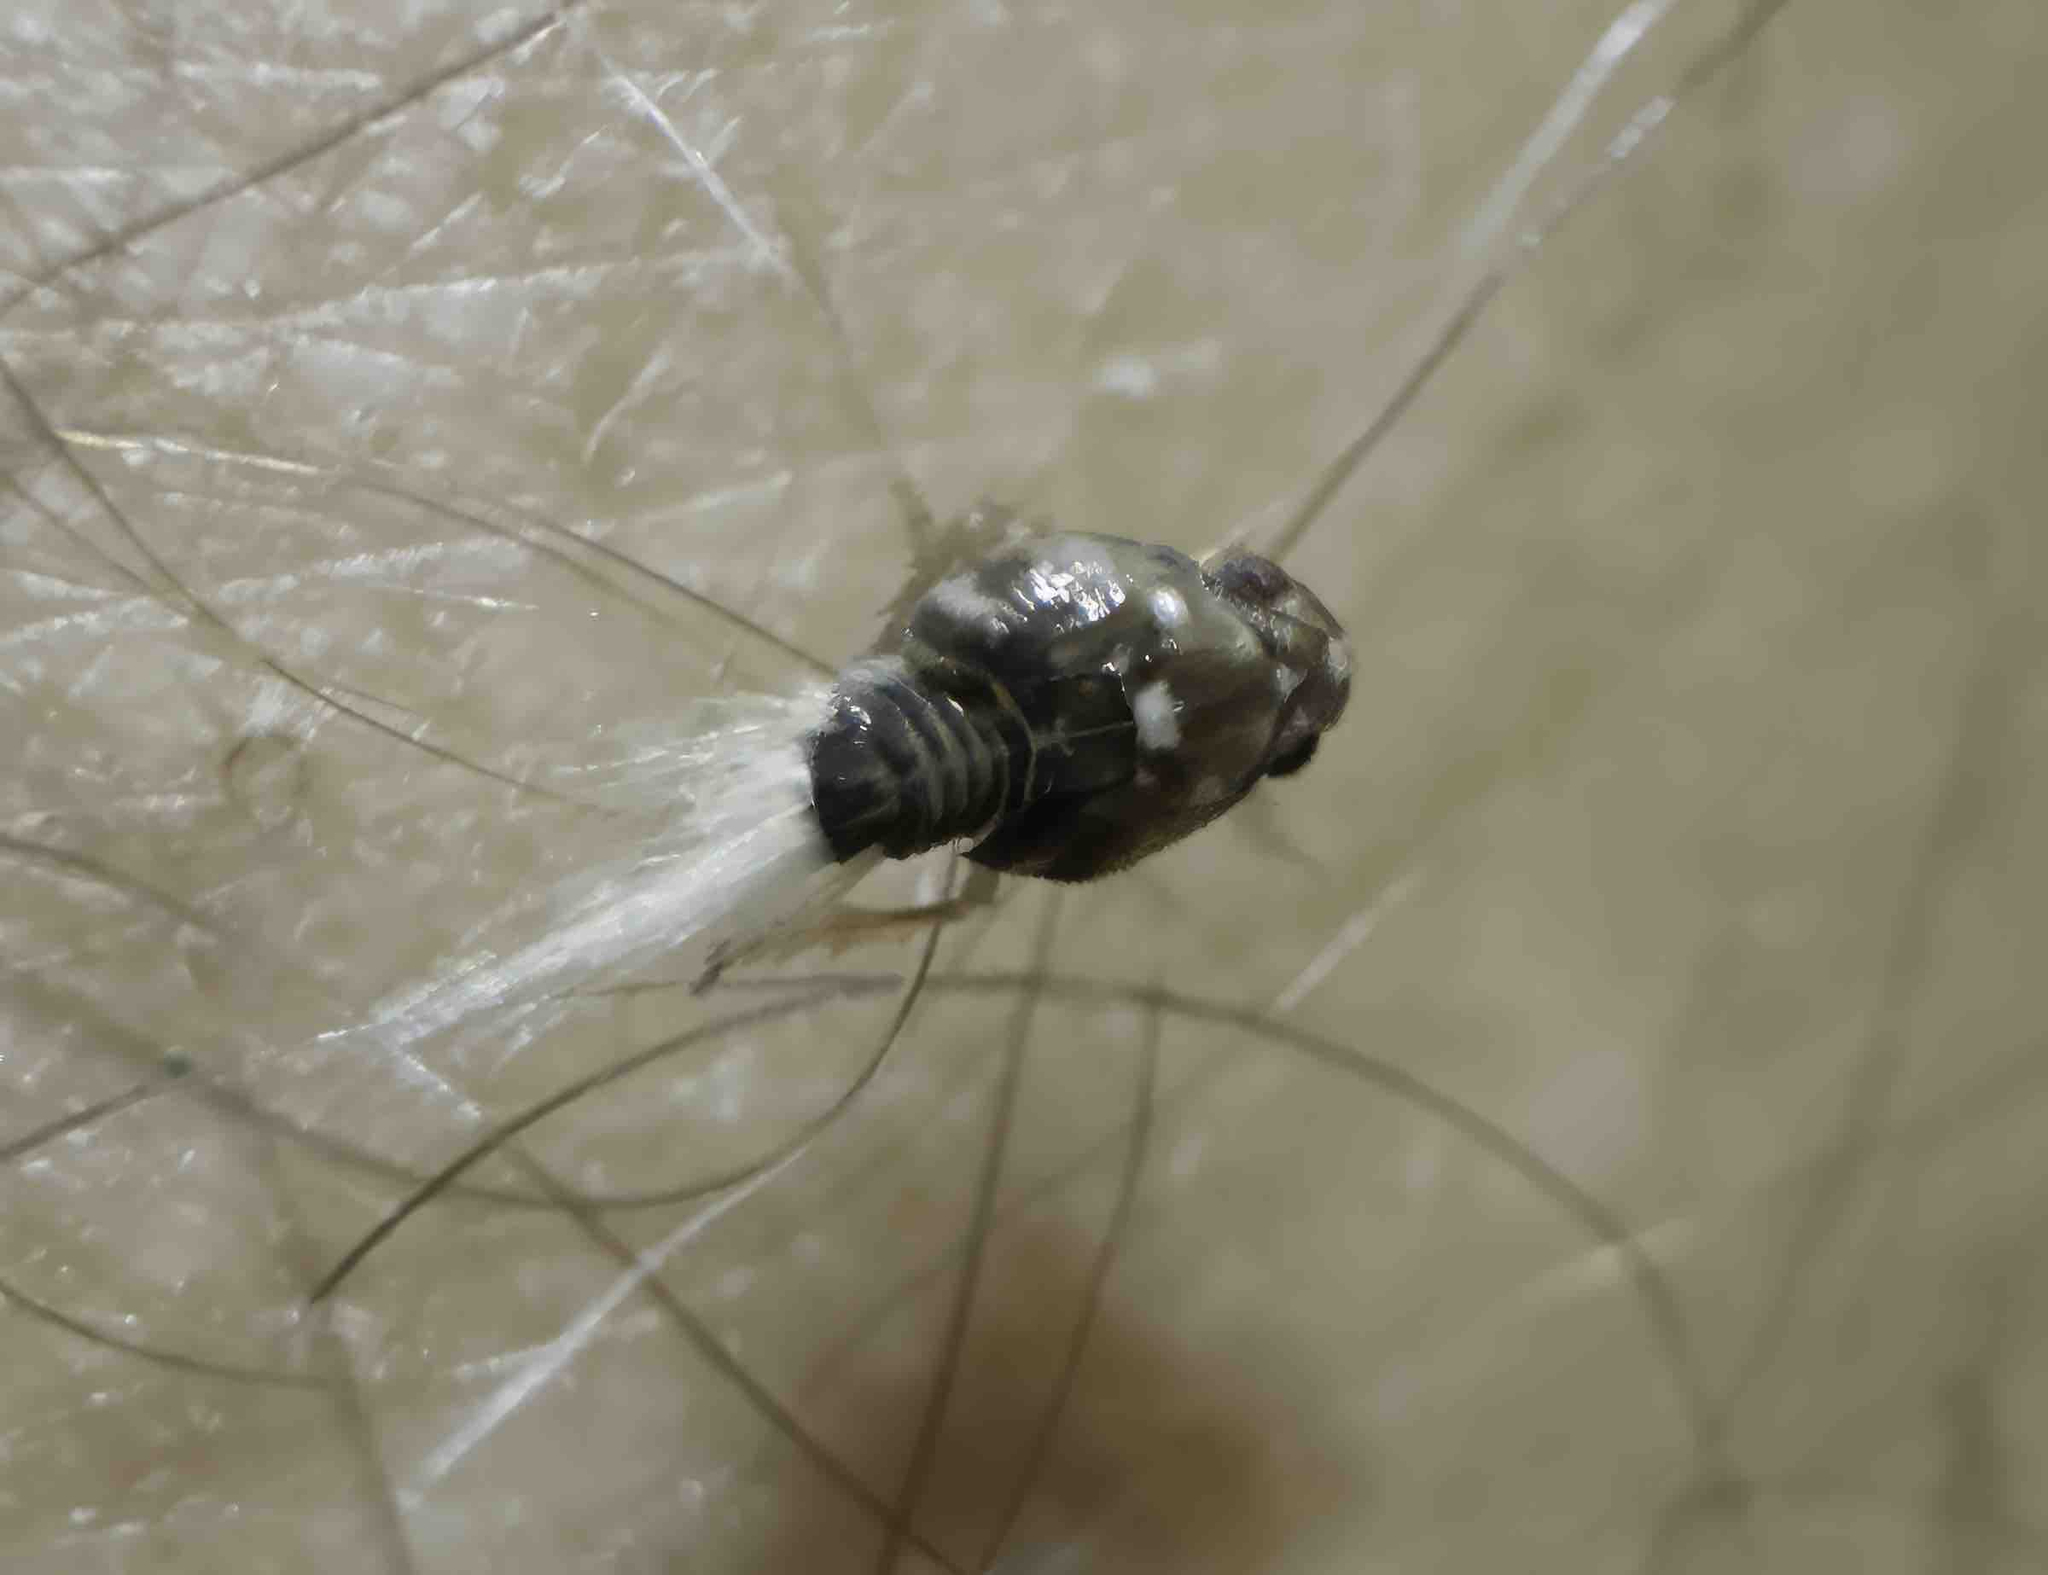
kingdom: Animalia
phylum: Arthropoda
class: Insecta
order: Hemiptera
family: Ricaniidae
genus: Scolypopa
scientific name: Scolypopa australis
